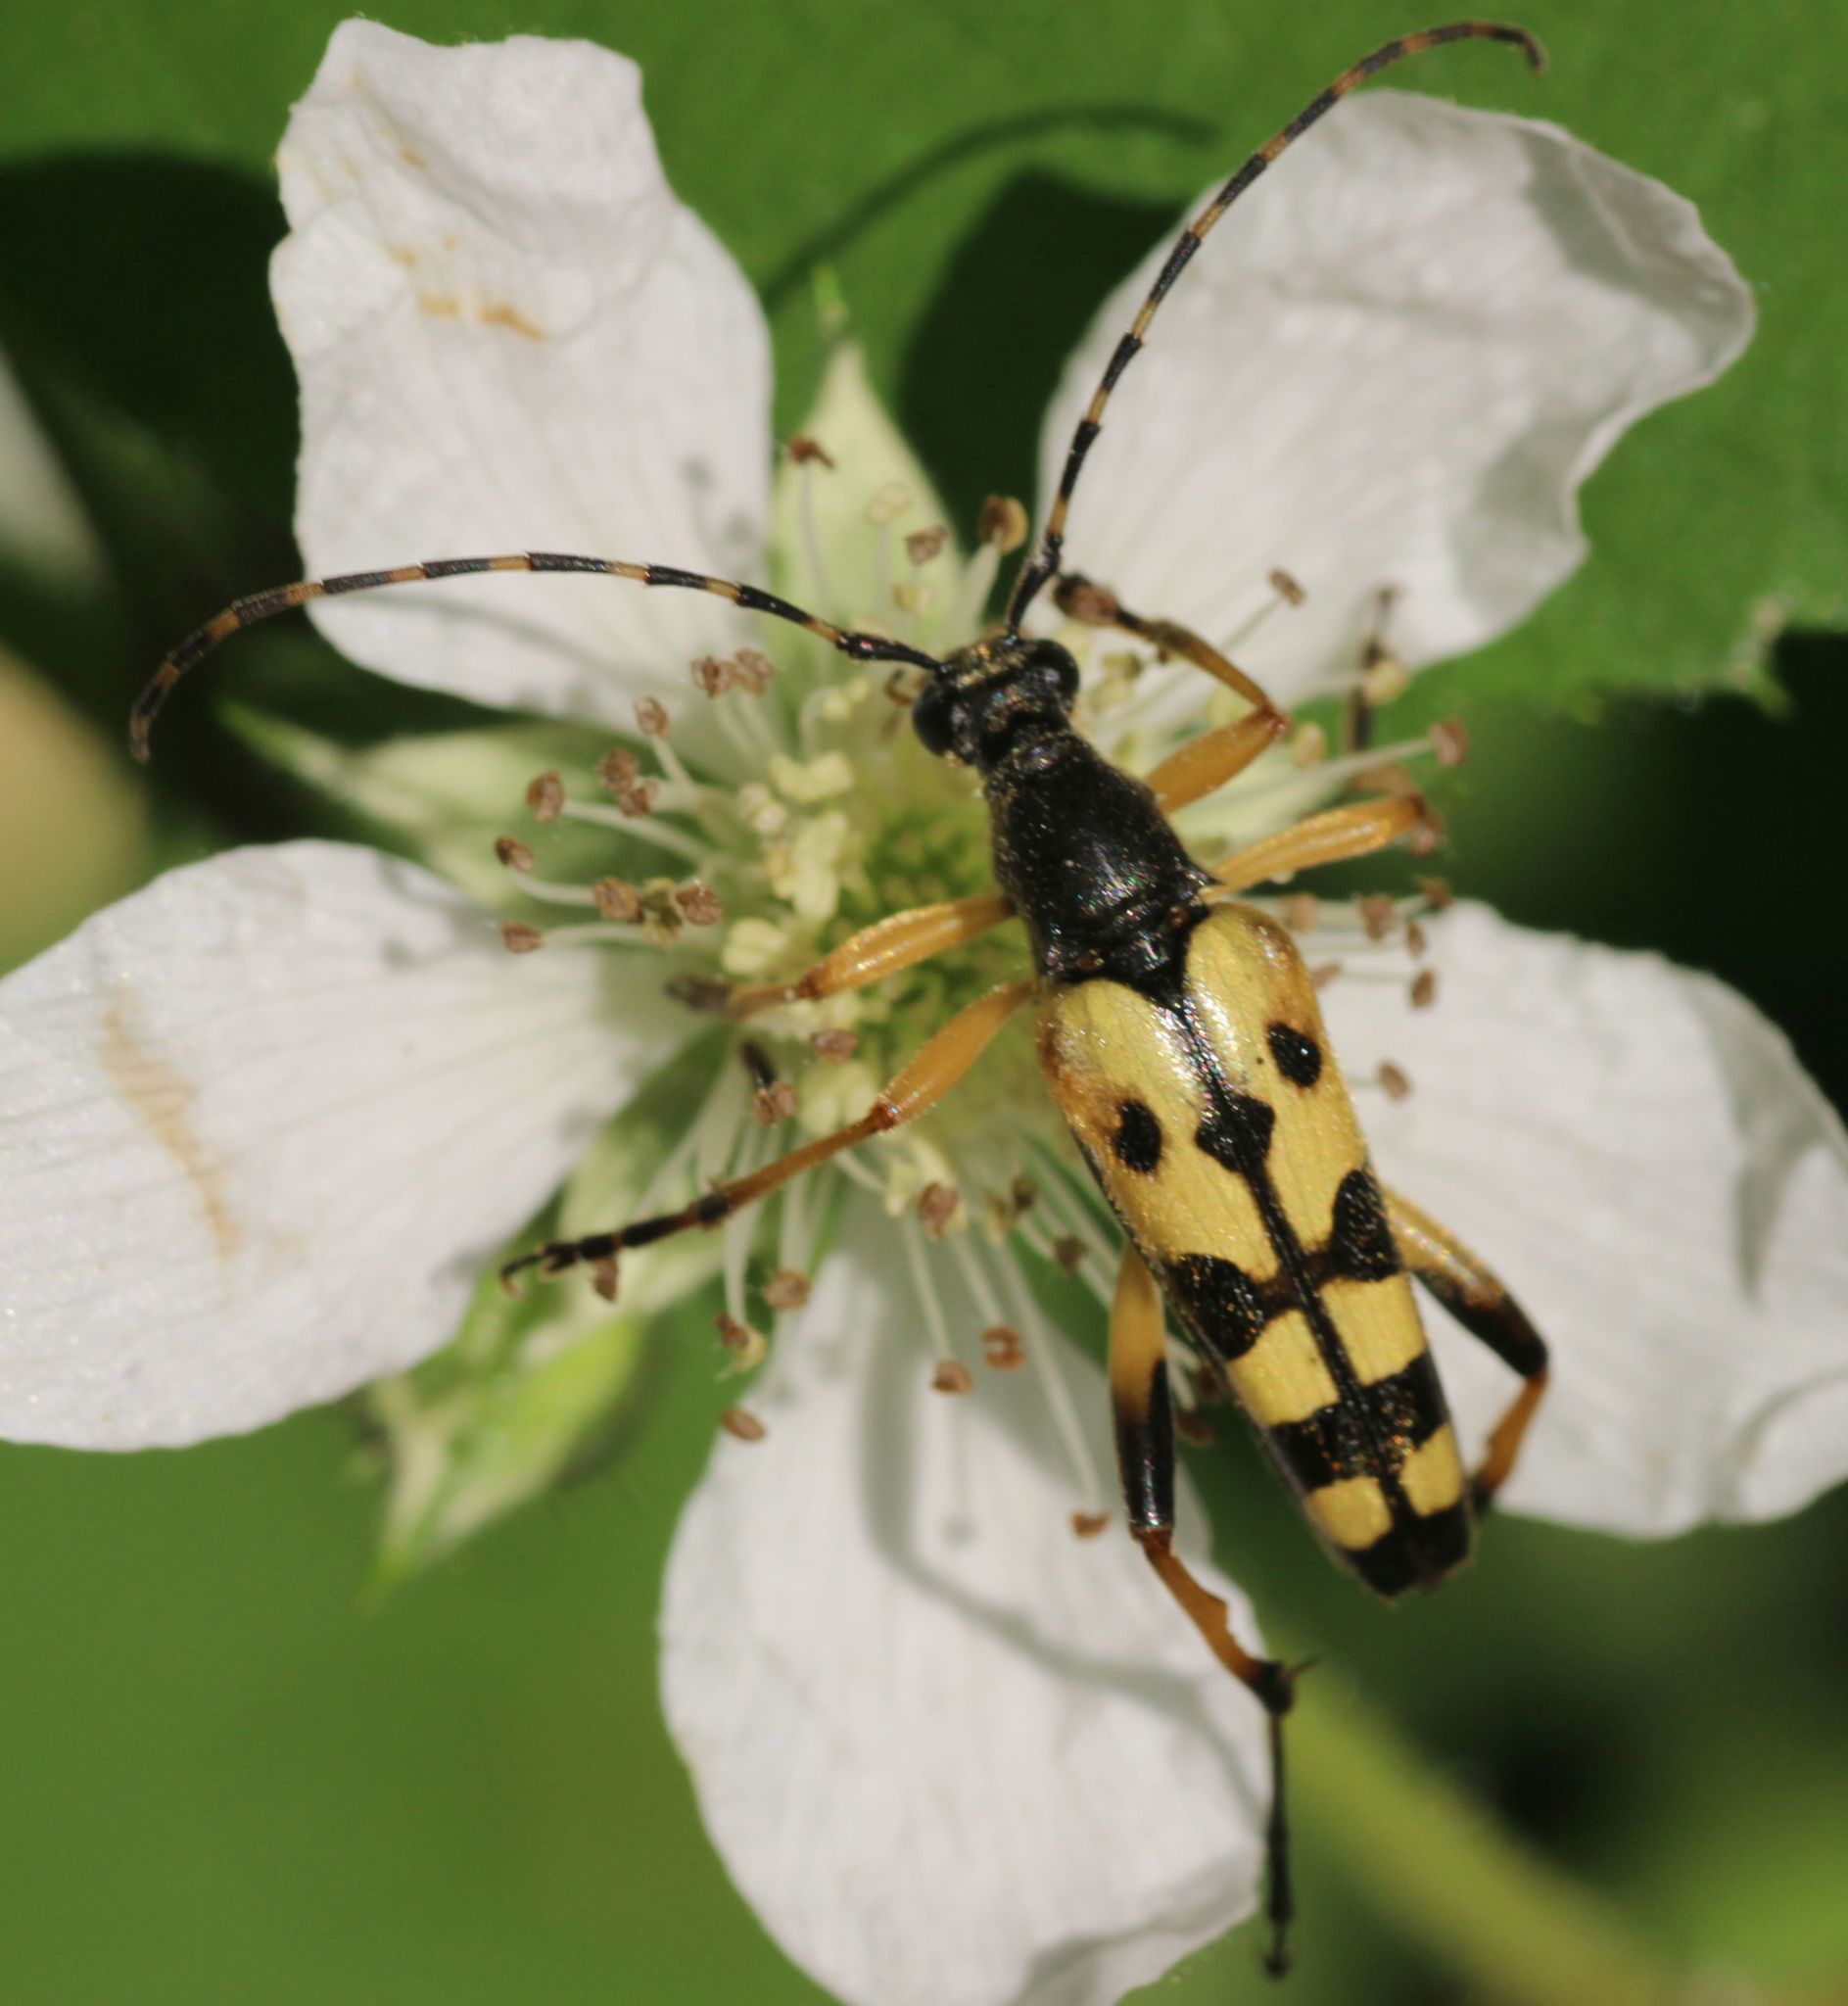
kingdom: Animalia
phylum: Arthropoda
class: Insecta
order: Coleoptera
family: Cerambycidae
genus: Rutpela
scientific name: Rutpela maculata
